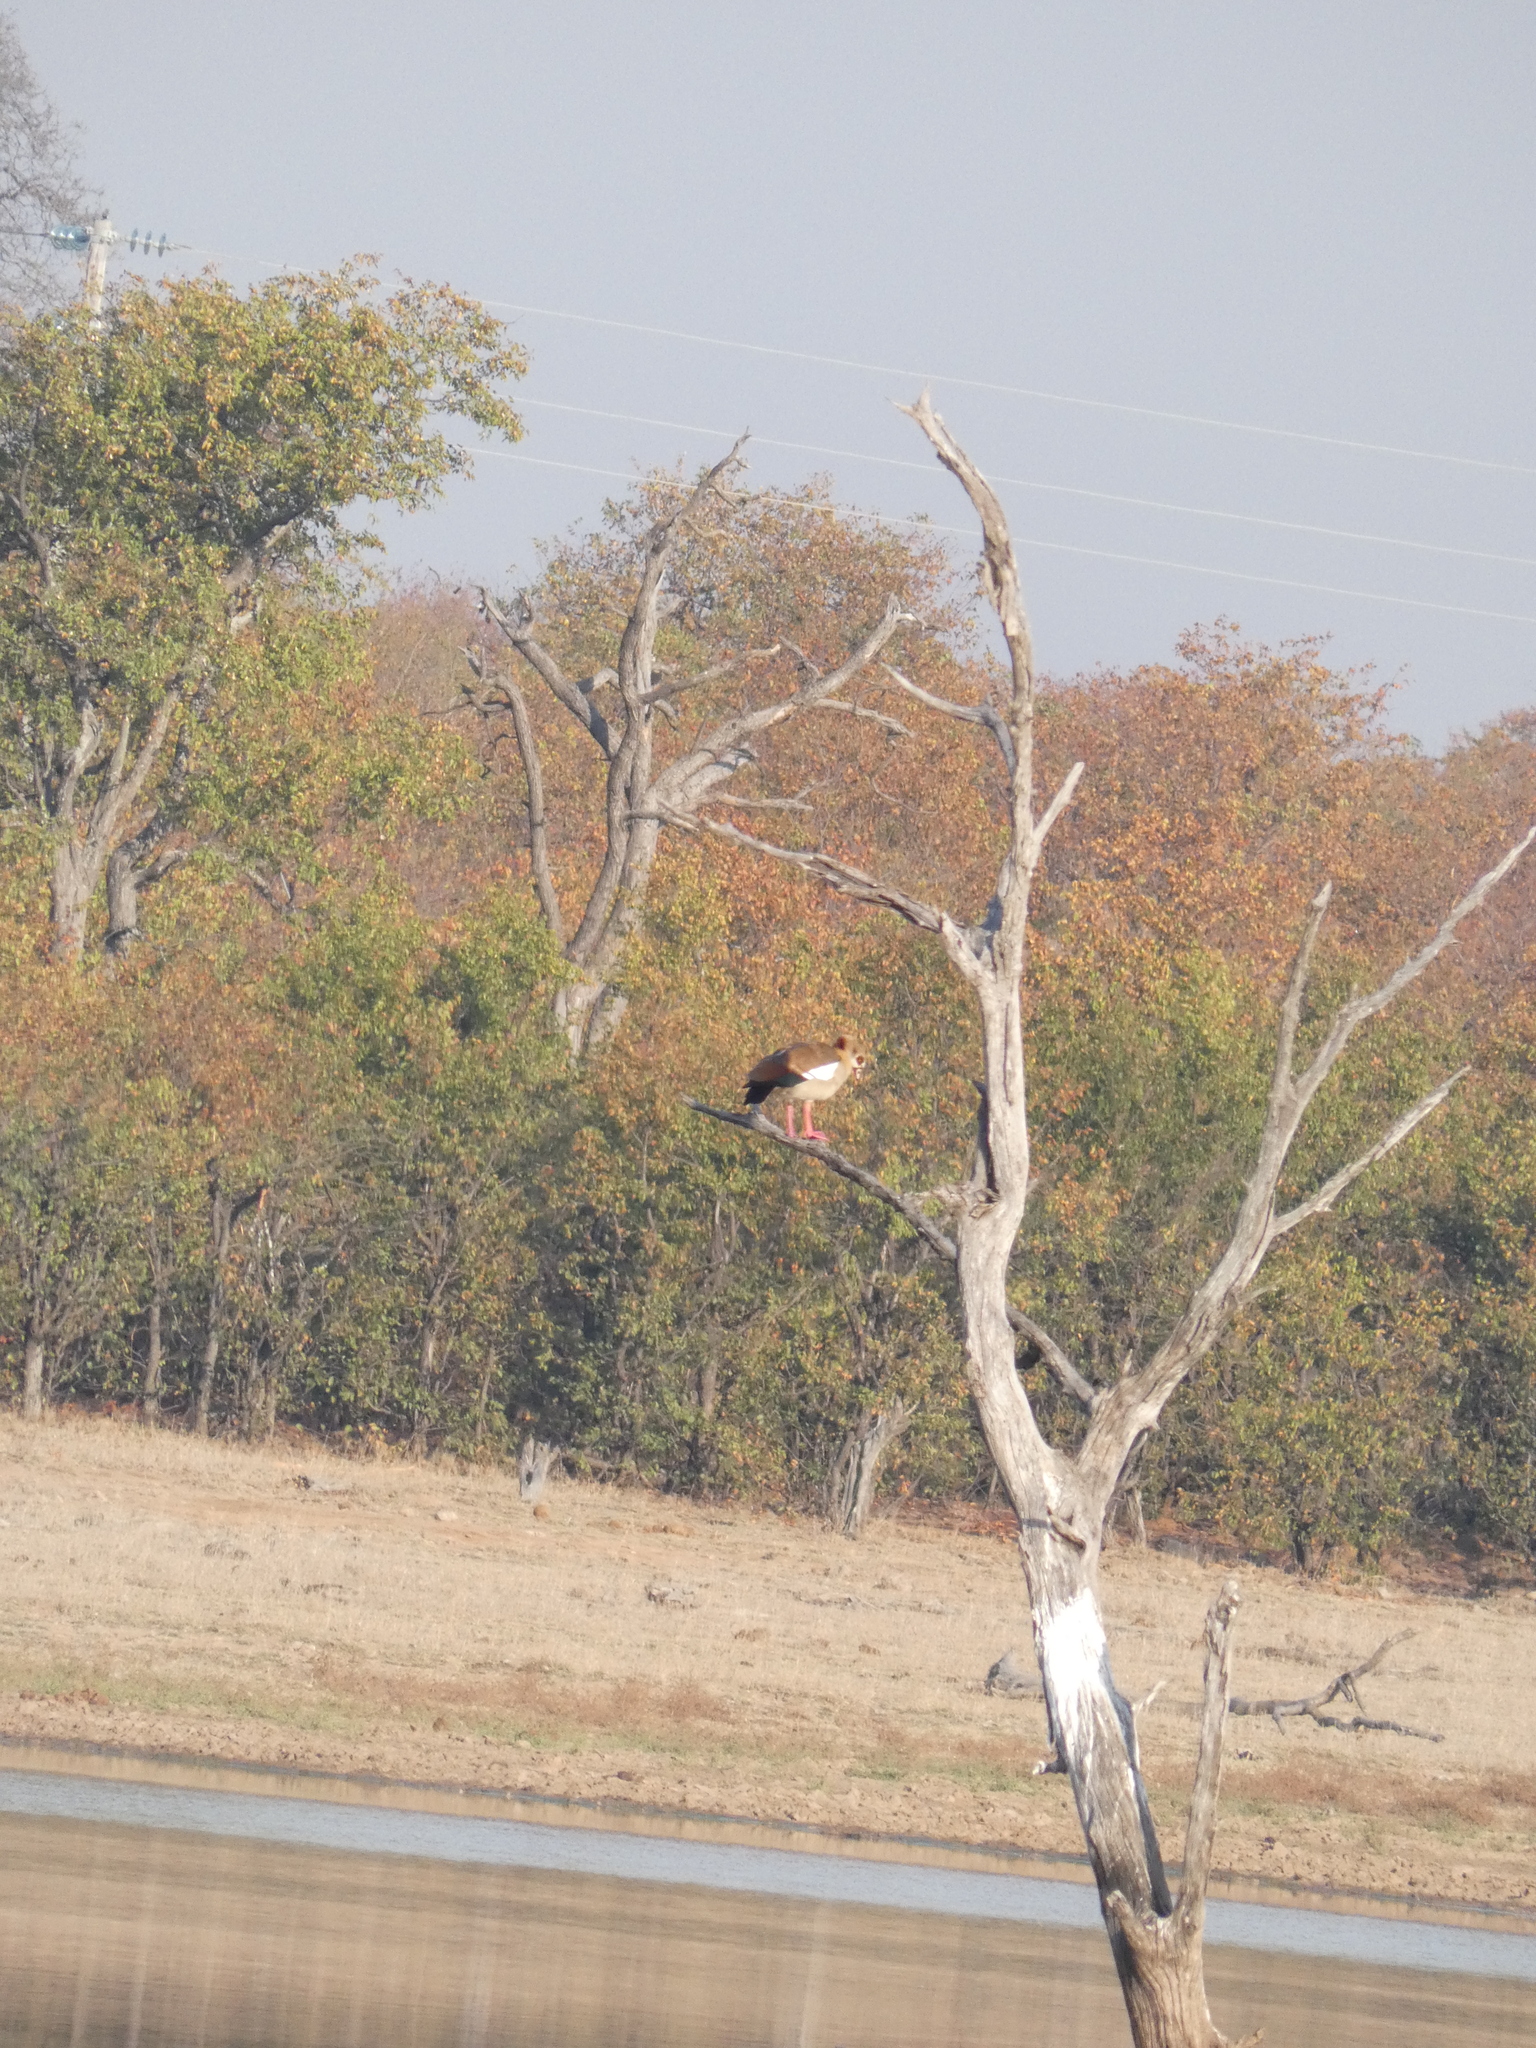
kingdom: Animalia
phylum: Chordata
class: Aves
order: Anseriformes
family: Anatidae
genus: Alopochen
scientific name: Alopochen aegyptiaca
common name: Egyptian goose
